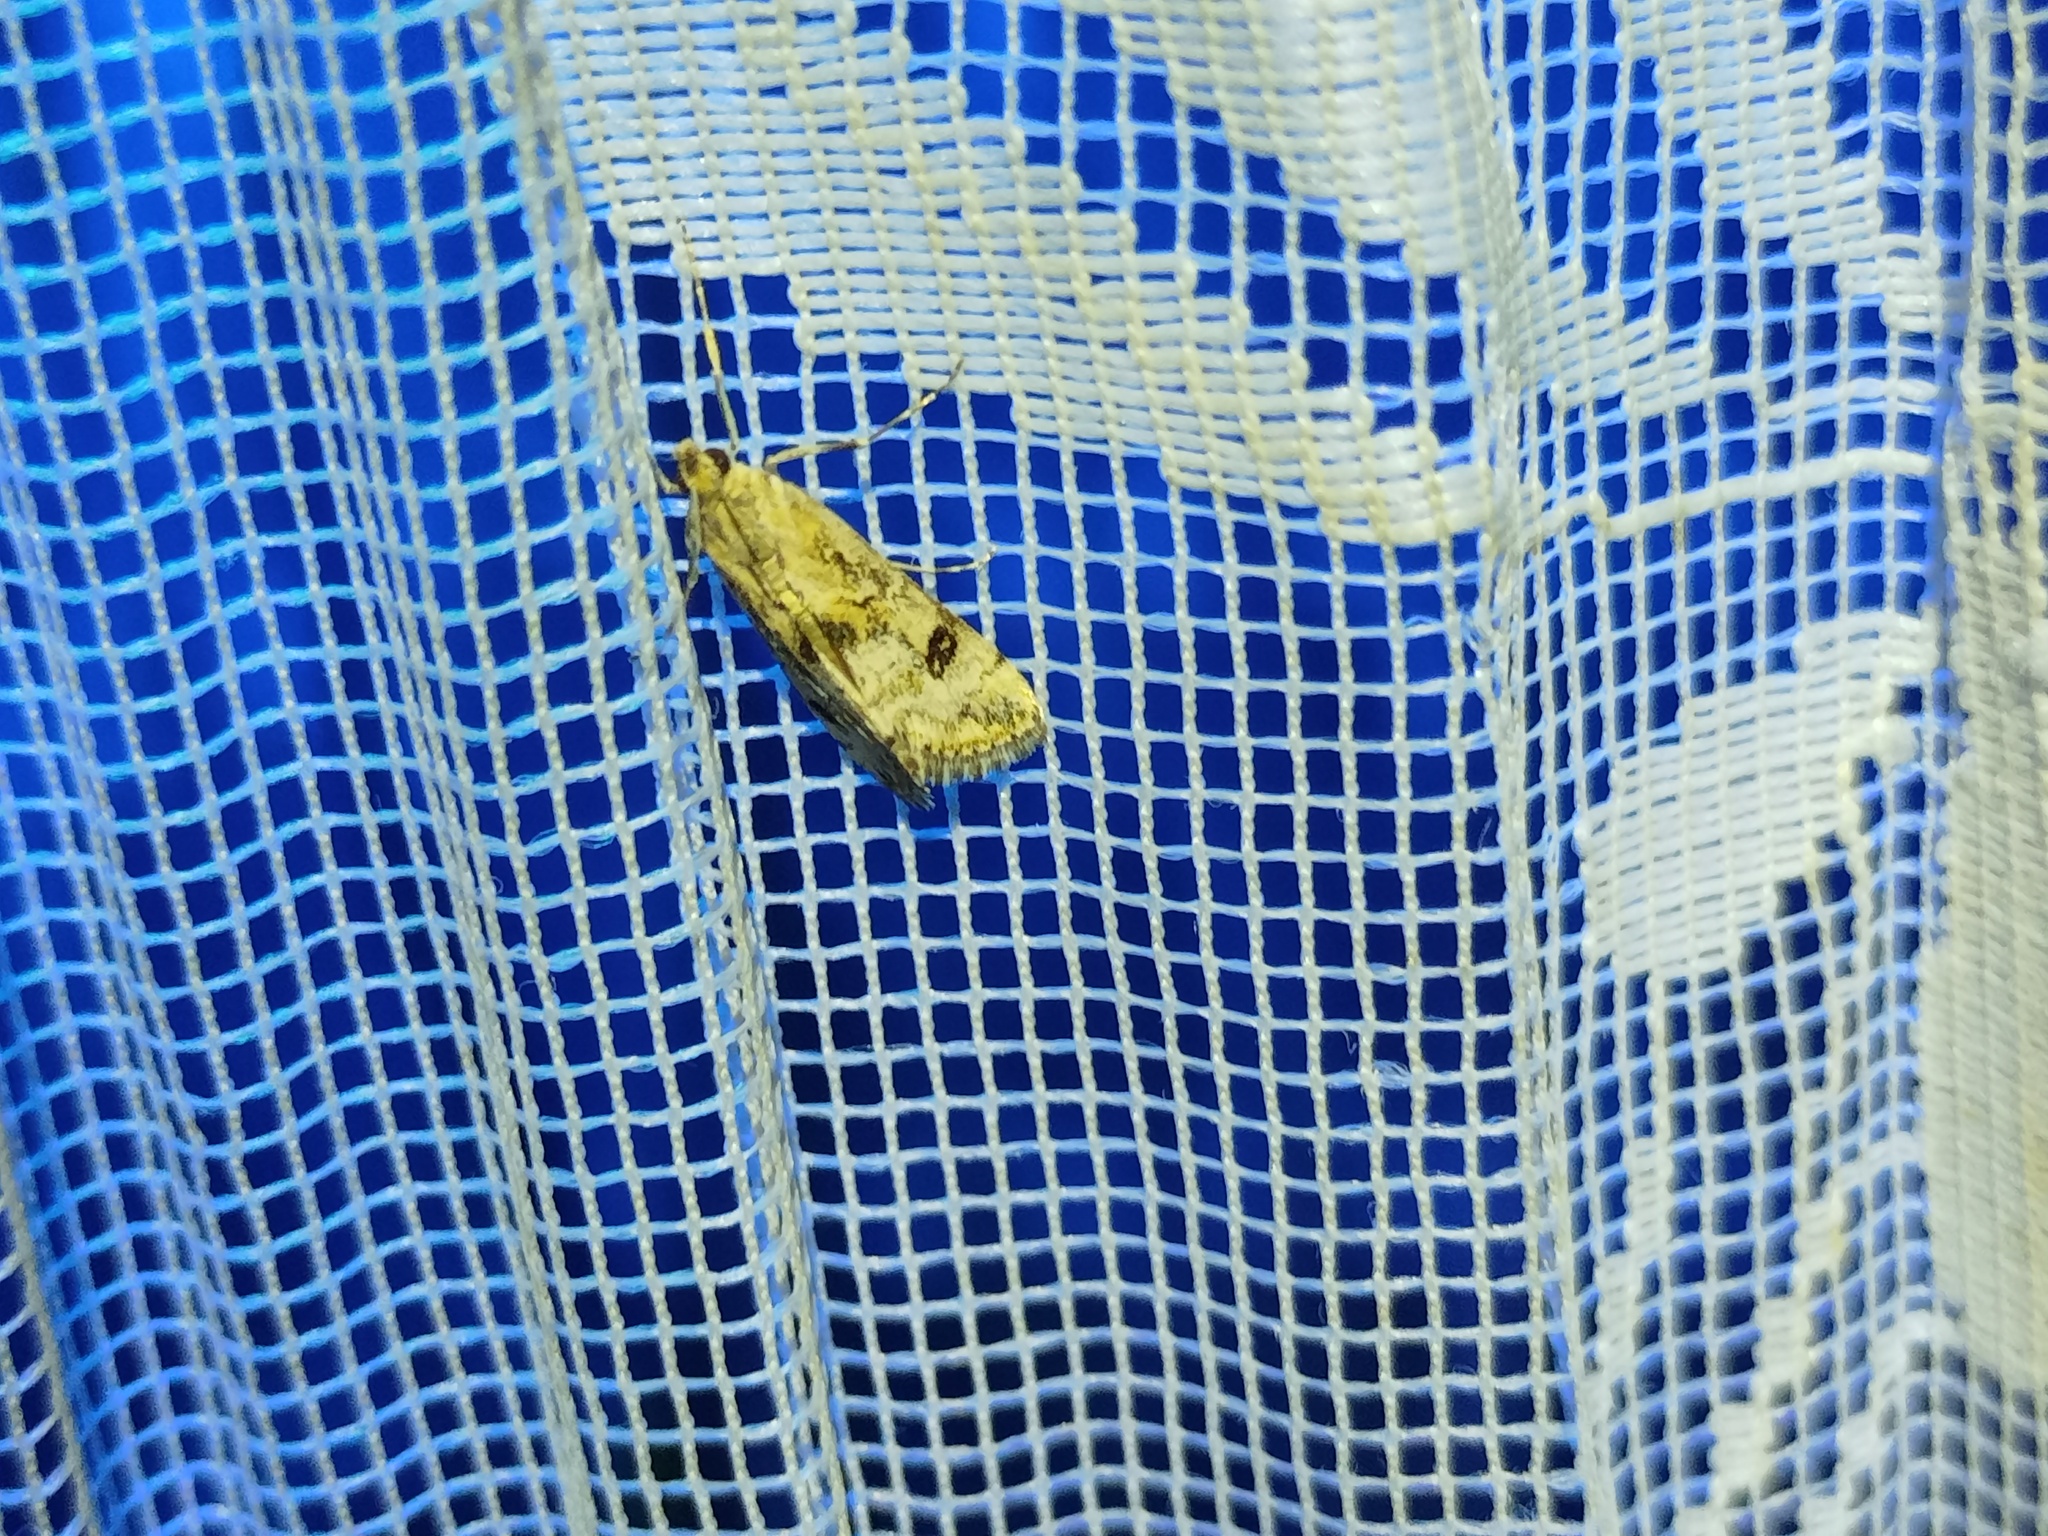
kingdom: Animalia
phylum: Arthropoda
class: Insecta
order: Lepidoptera
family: Crambidae
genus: Hellula
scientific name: Hellula undalis
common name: Cabbage webworm
